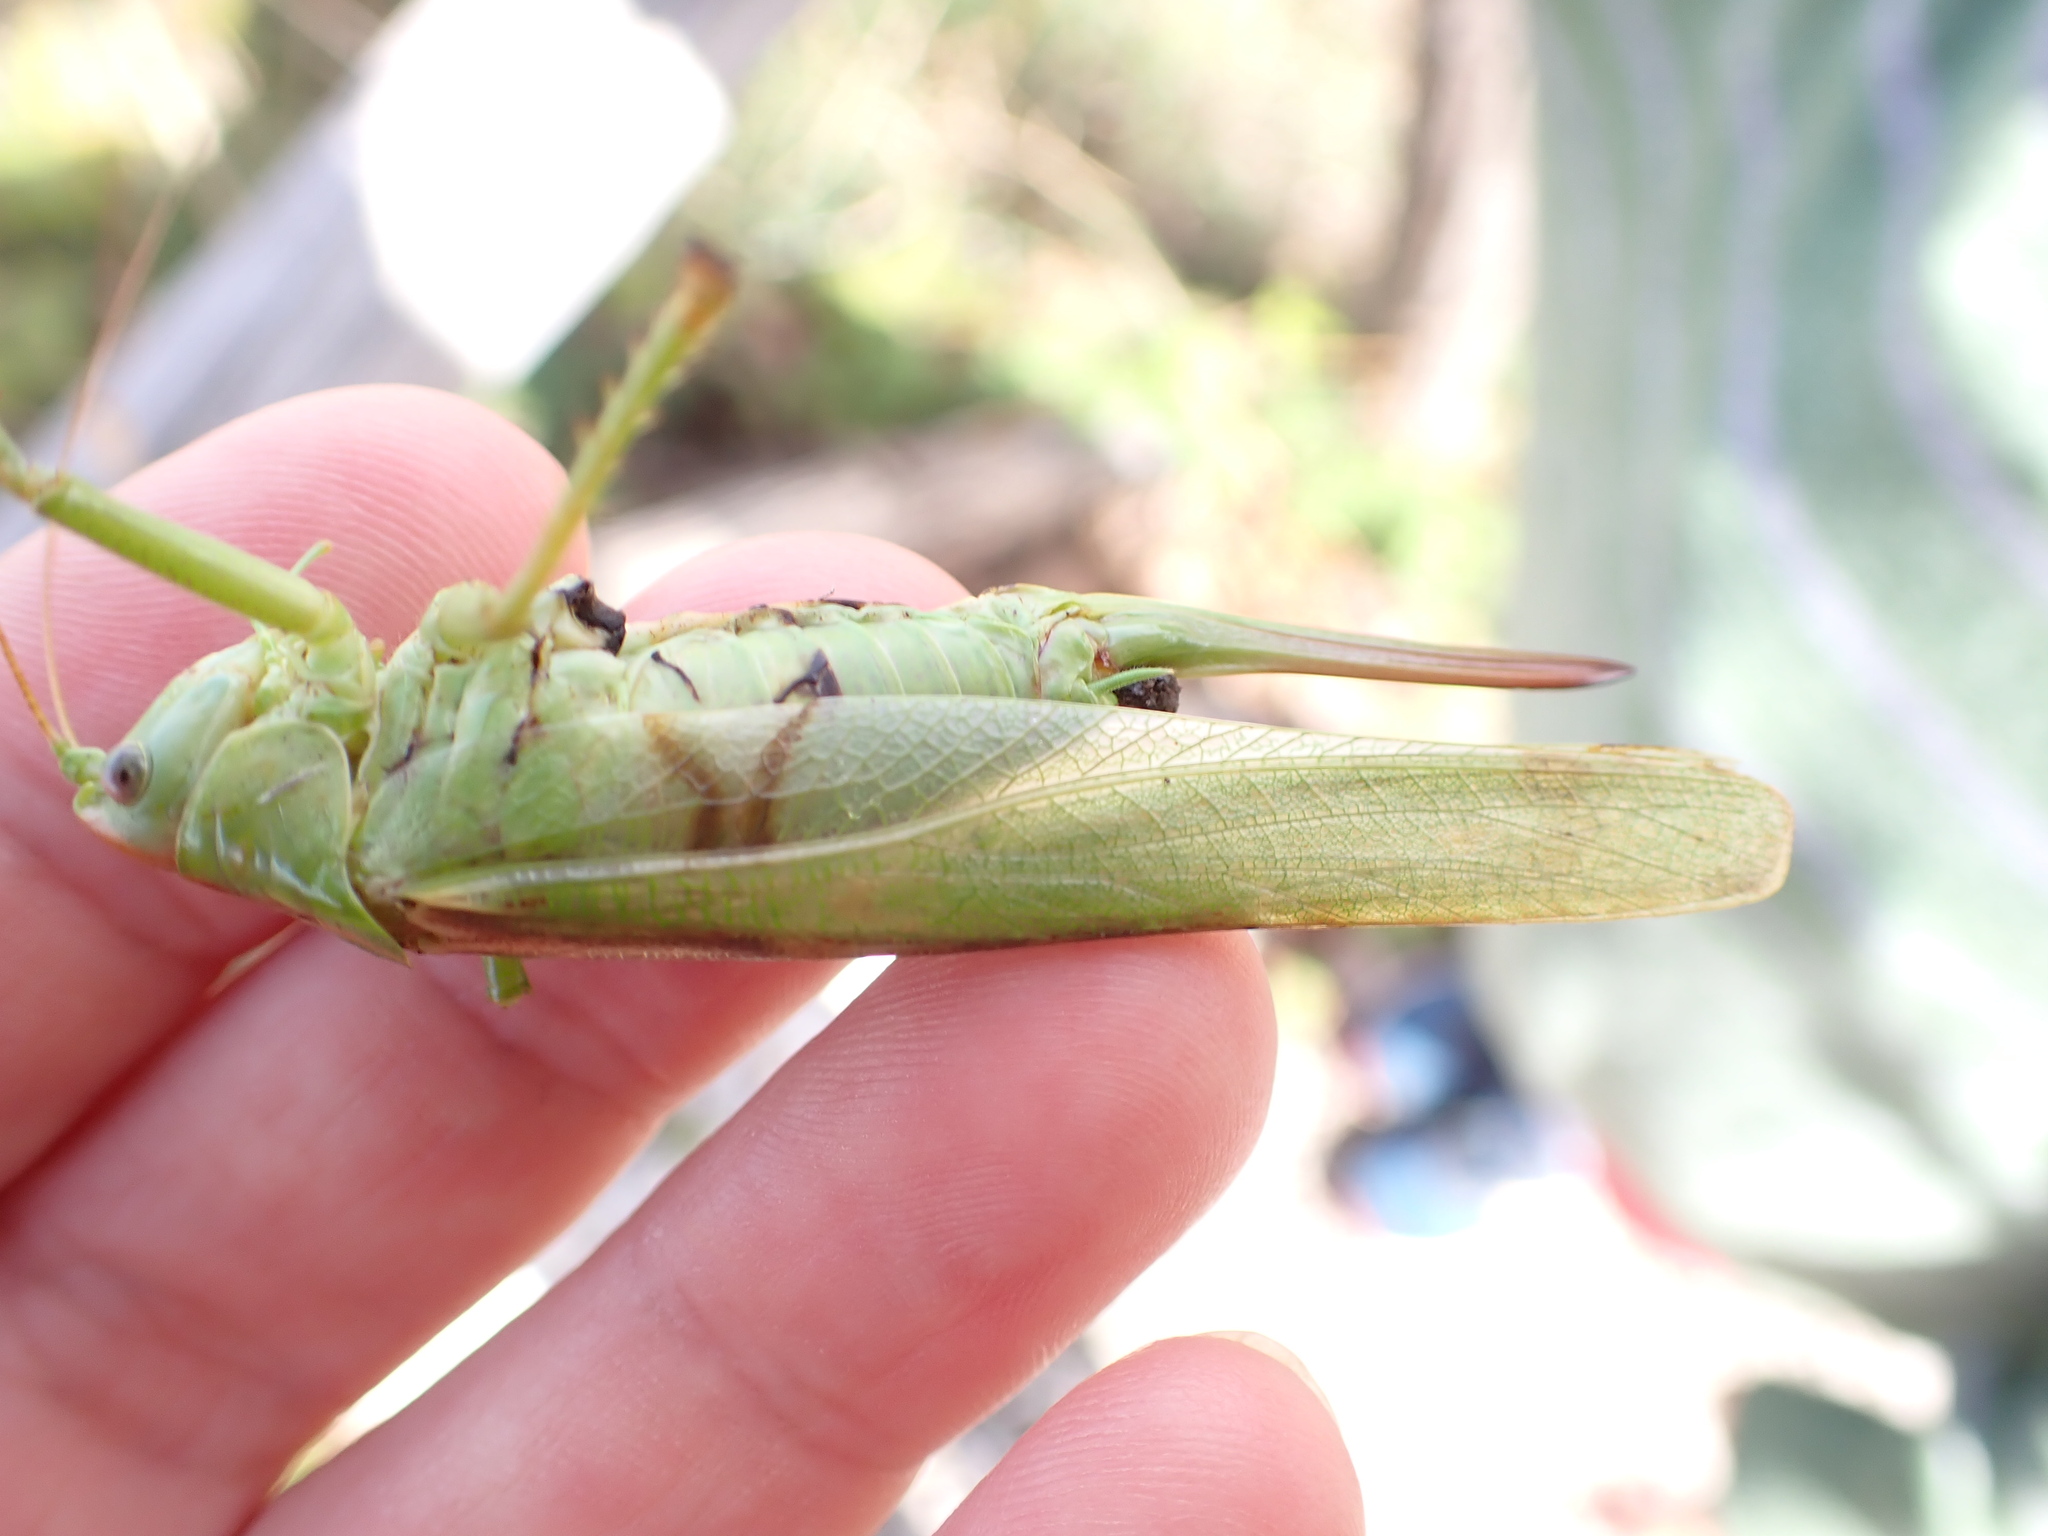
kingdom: Animalia
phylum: Arthropoda
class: Insecta
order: Orthoptera
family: Tettigoniidae
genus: Tettigonia
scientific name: Tettigonia viridissima
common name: Great green bush-cricket
